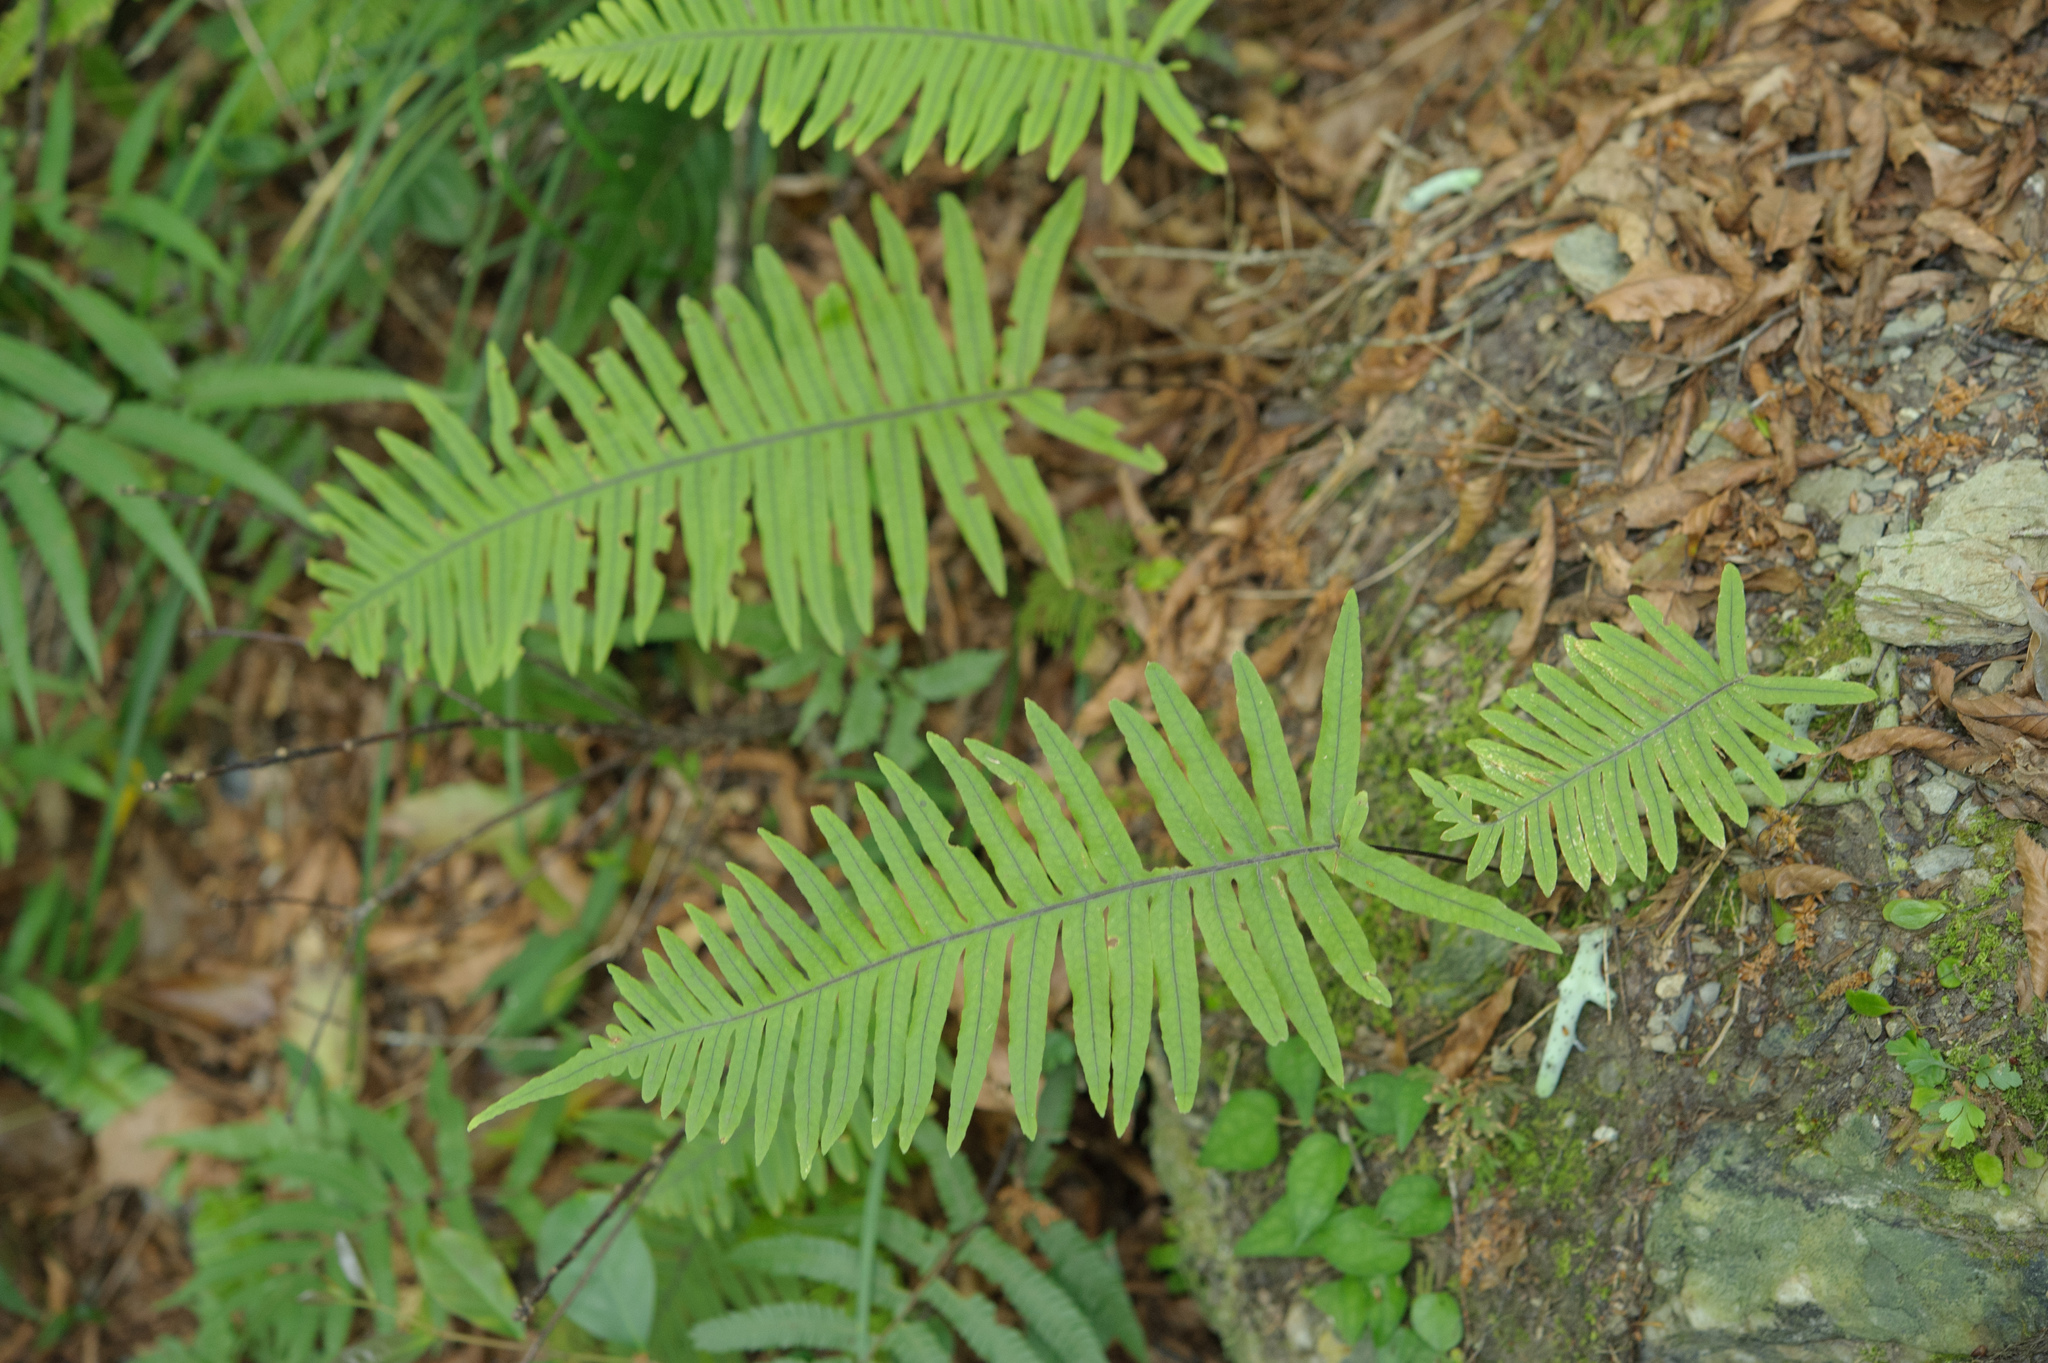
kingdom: Plantae
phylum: Tracheophyta
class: Polypodiopsida
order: Polypodiales
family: Polypodiaceae
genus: Goniophlebium
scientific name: Goniophlebium formosanum
